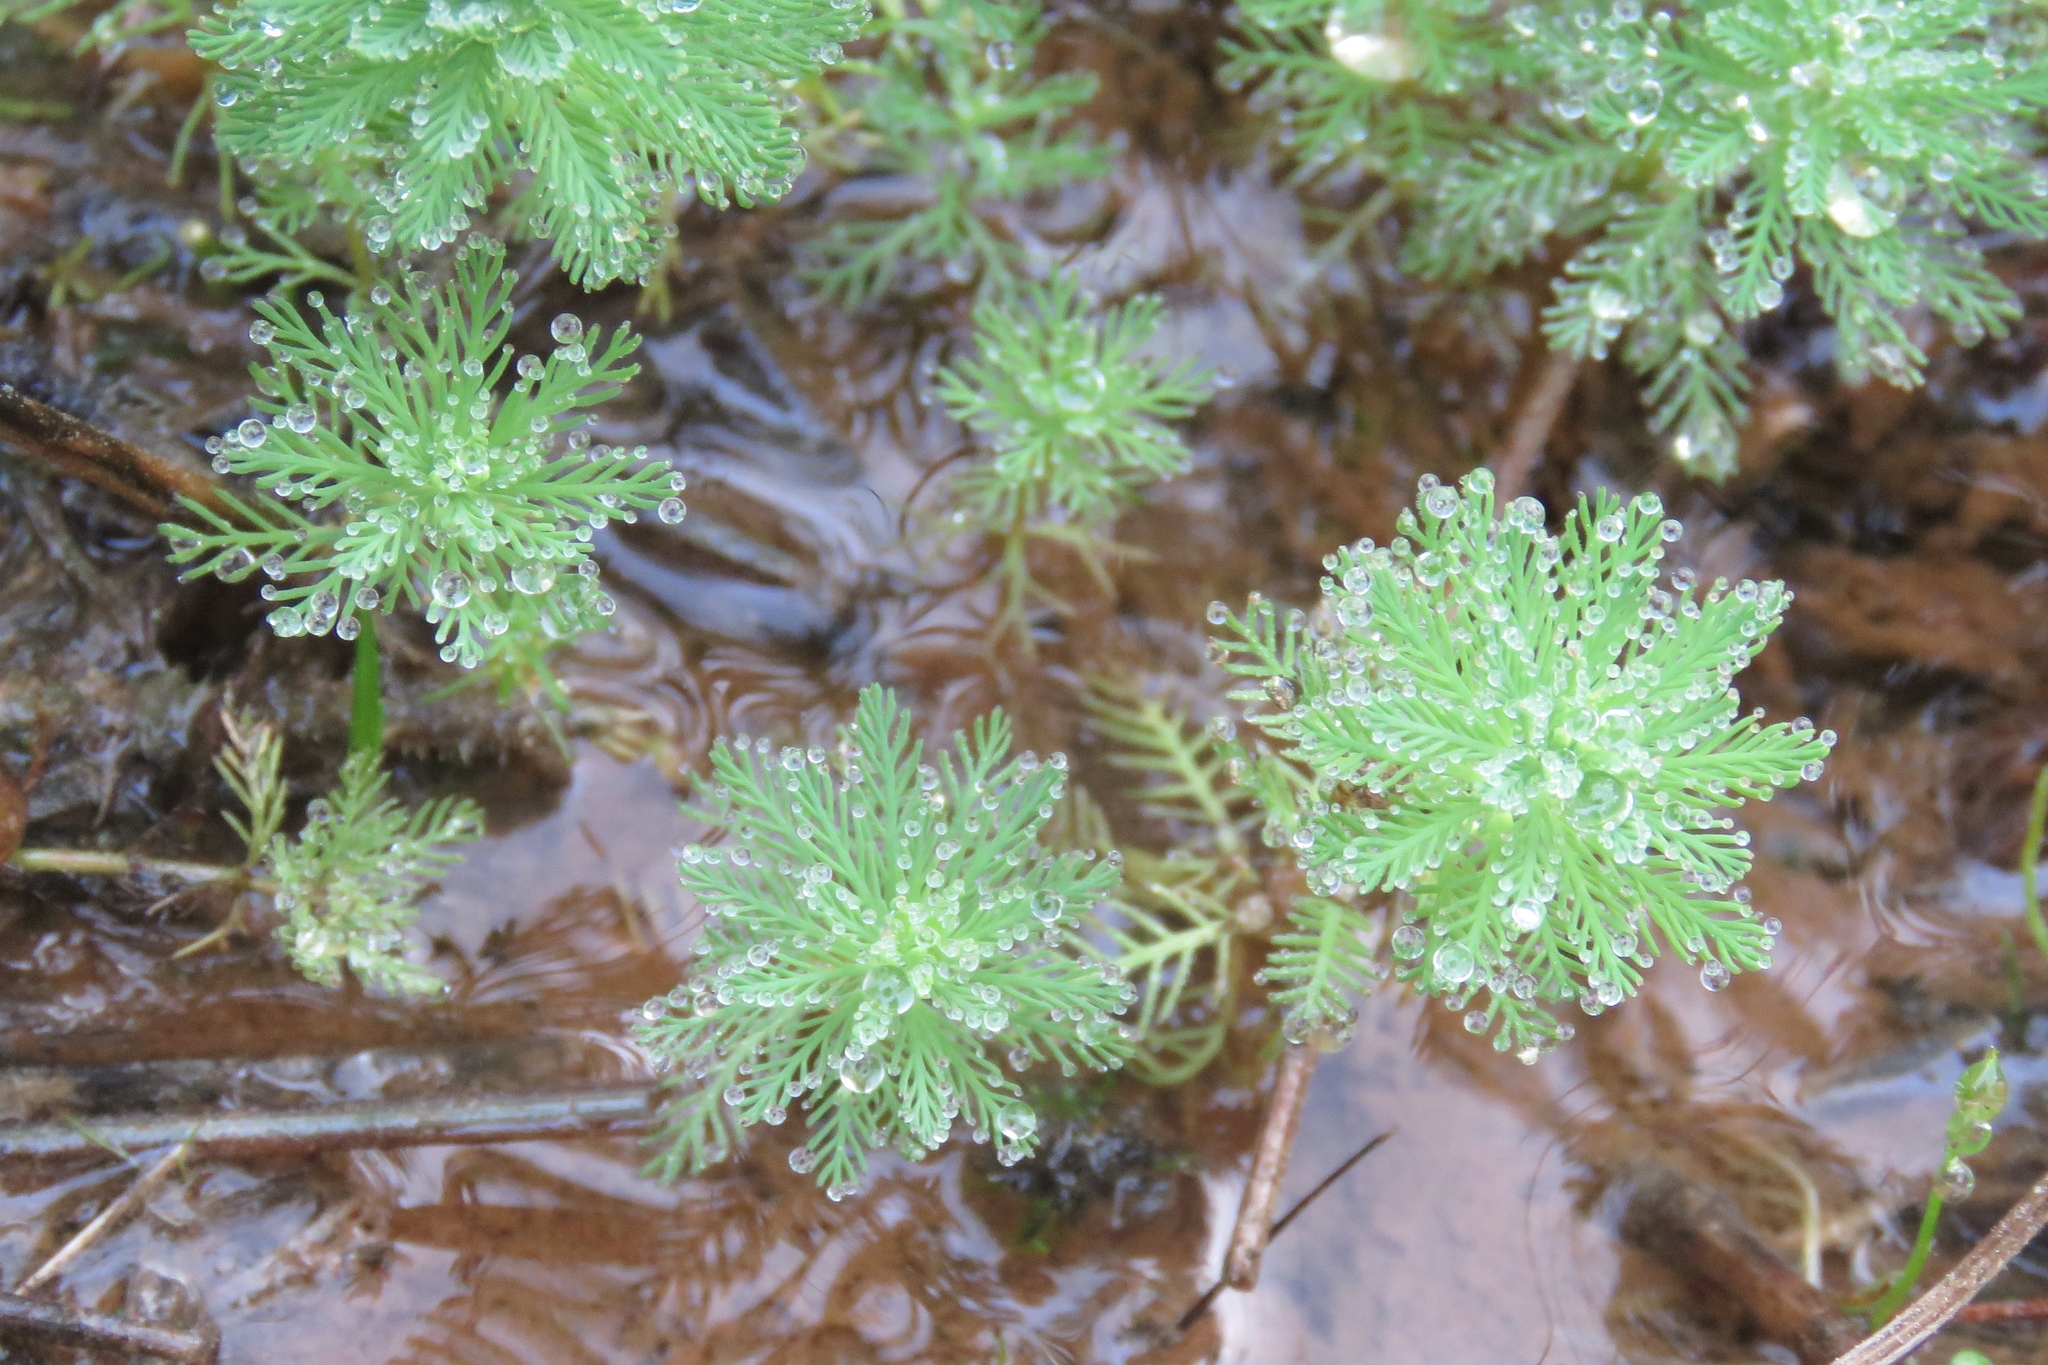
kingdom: Plantae
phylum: Tracheophyta
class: Magnoliopsida
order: Saxifragales
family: Haloragaceae
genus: Myriophyllum
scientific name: Myriophyllum aquaticum
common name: Parrot's feather
